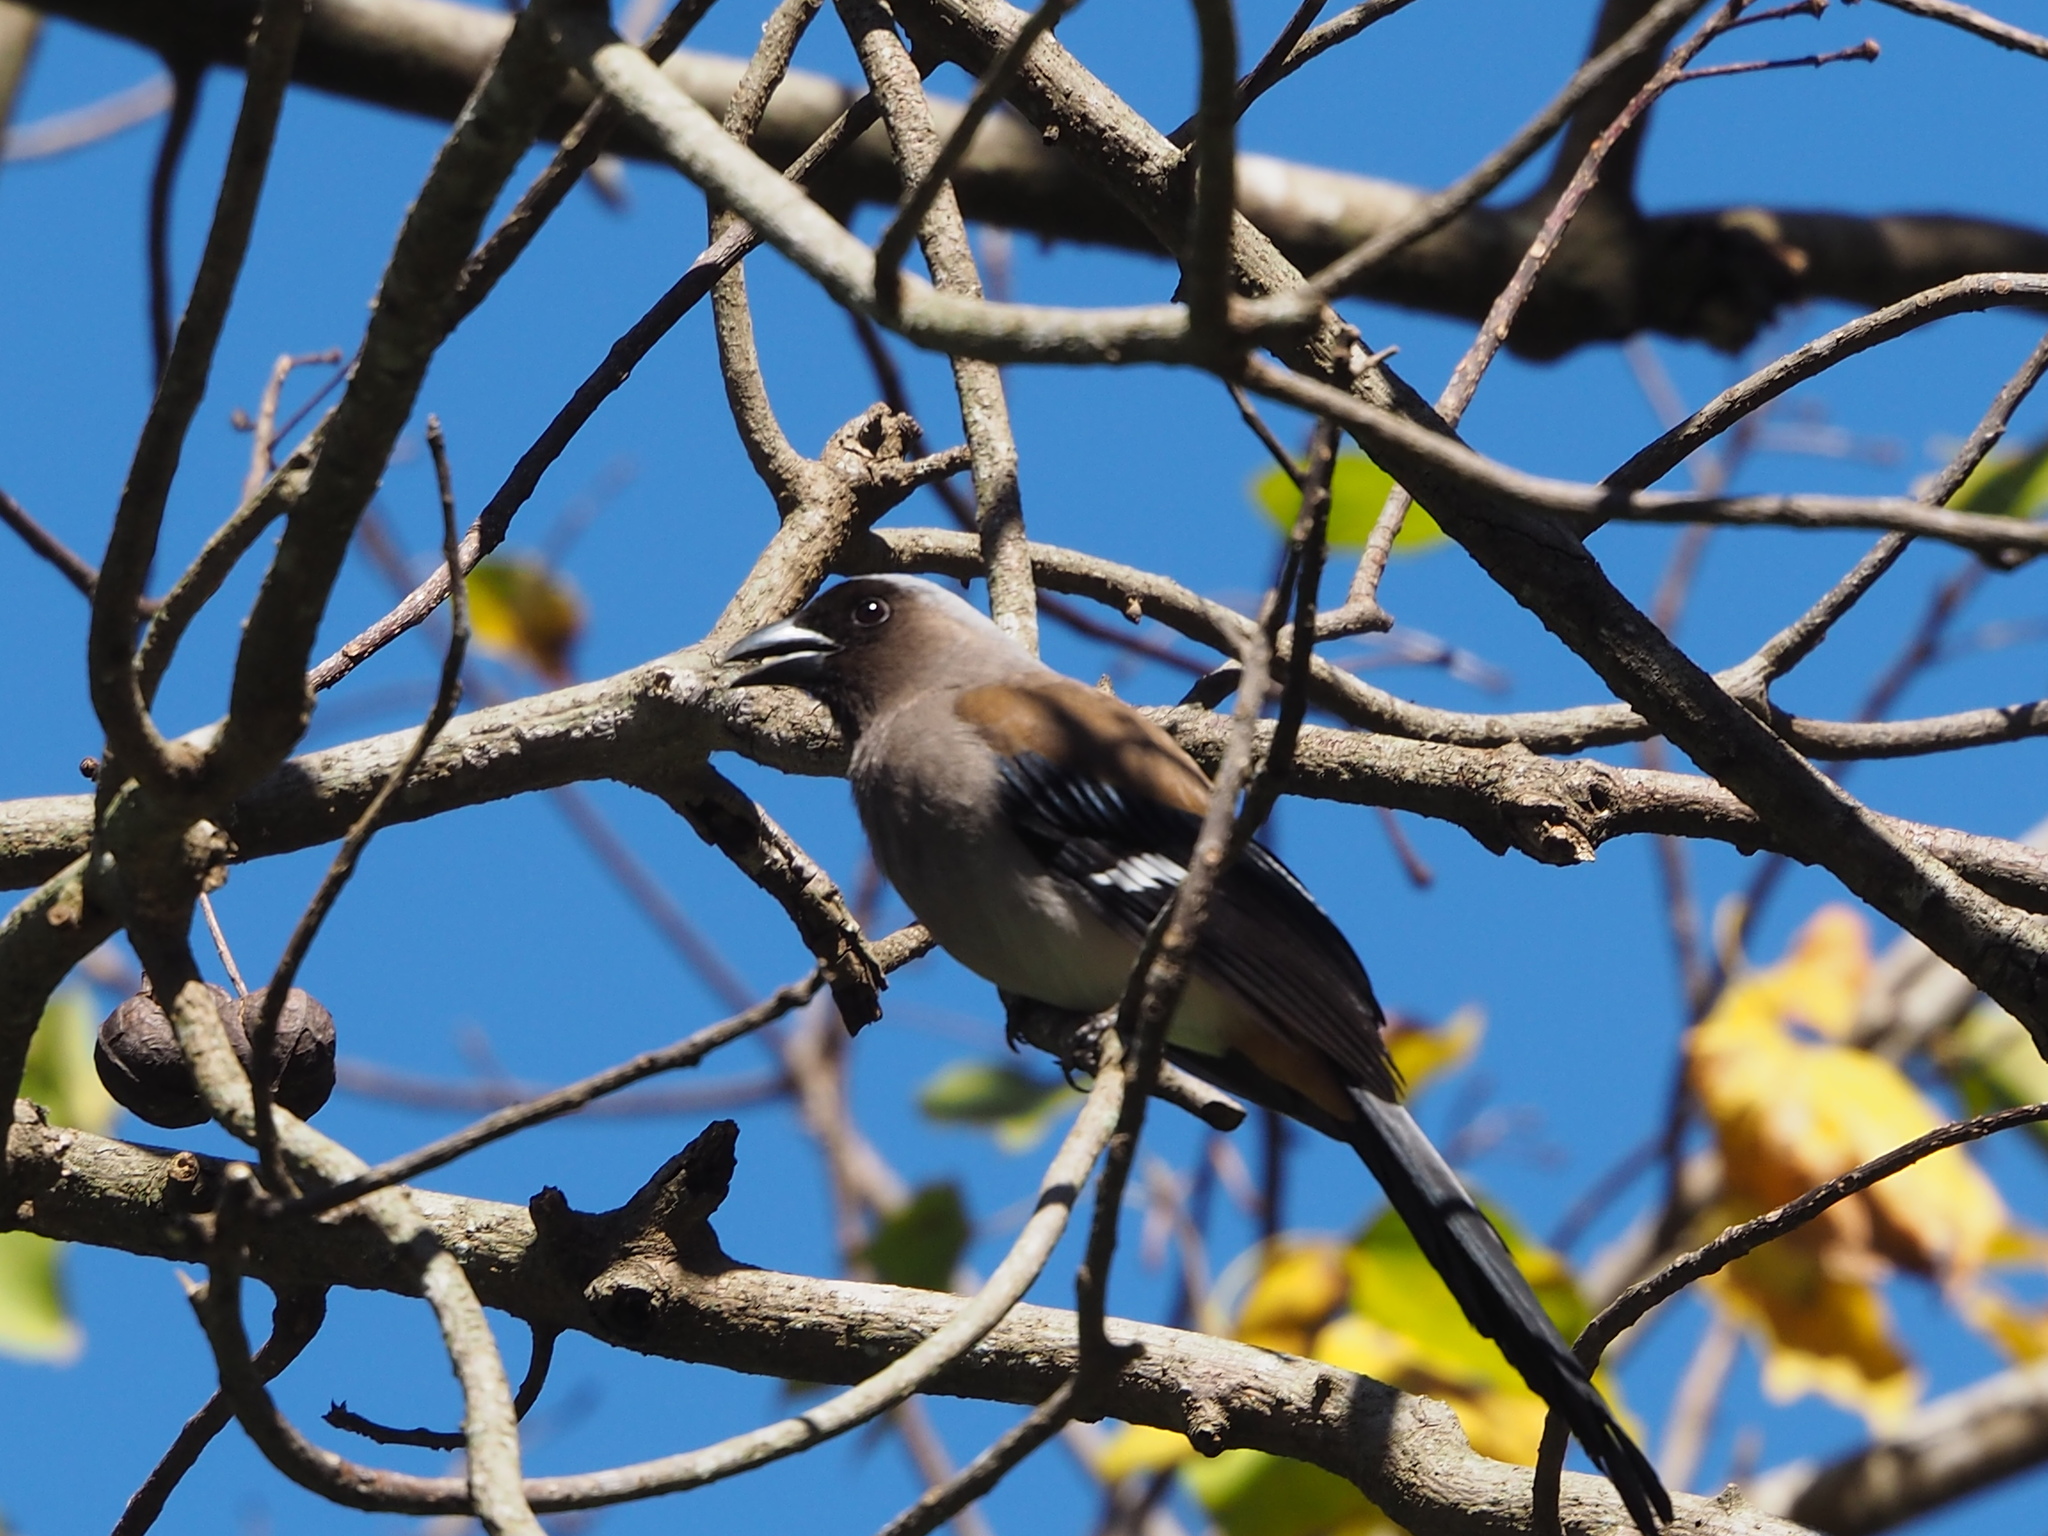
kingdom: Animalia
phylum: Chordata
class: Aves
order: Passeriformes
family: Corvidae
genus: Dendrocitta
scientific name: Dendrocitta formosae
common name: Grey treepie
